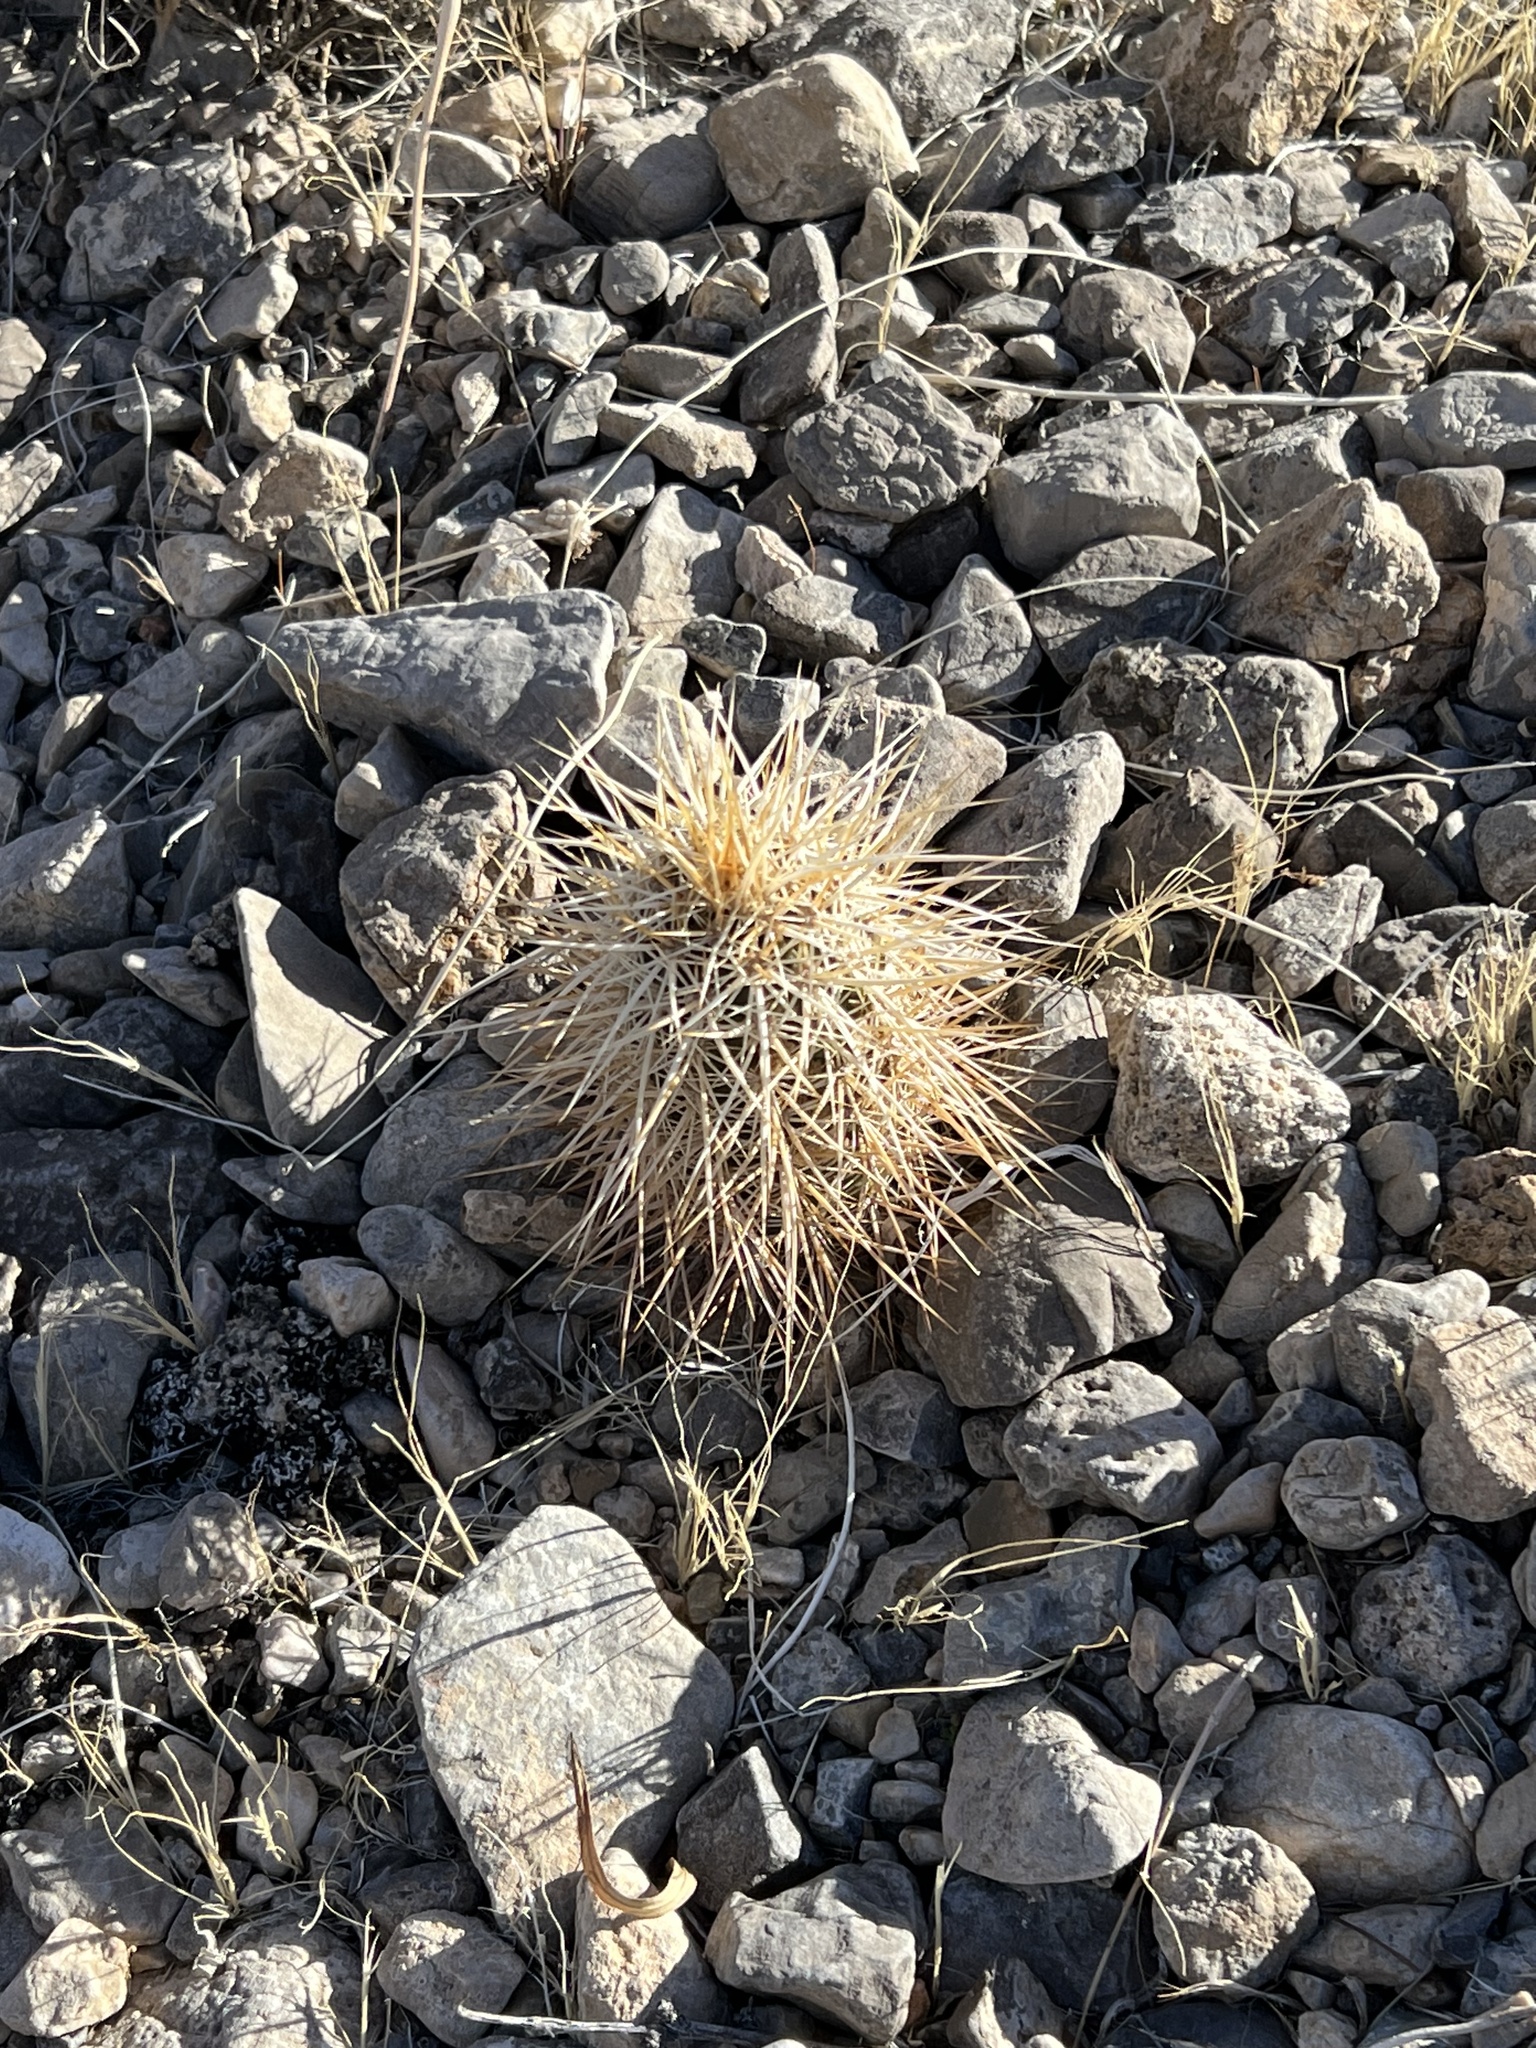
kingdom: Plantae
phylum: Tracheophyta
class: Magnoliopsida
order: Caryophyllales
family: Cactaceae
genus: Echinocereus
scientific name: Echinocereus engelmannii
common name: Engelmann's hedgehog cactus
